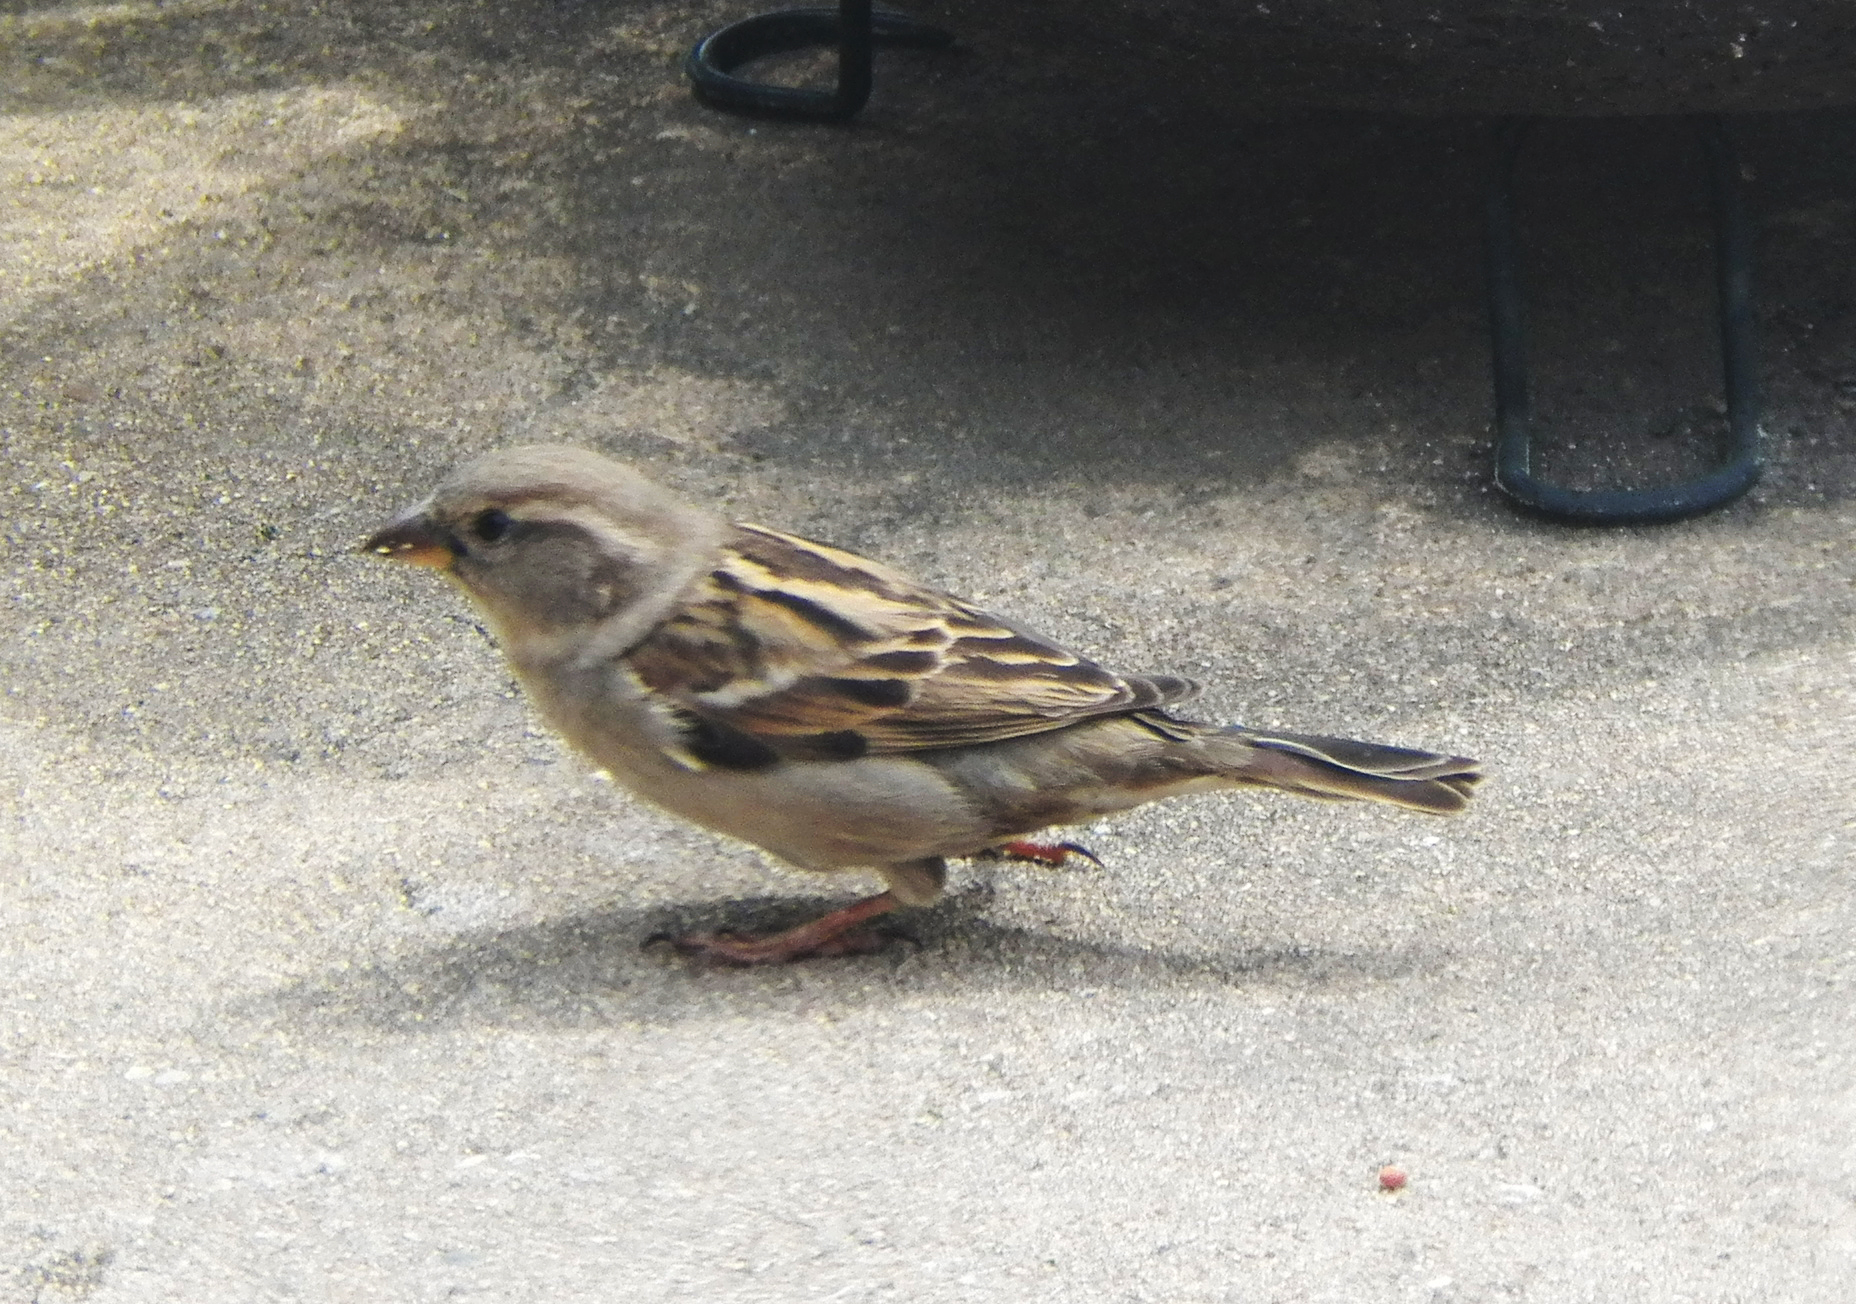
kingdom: Animalia
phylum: Chordata
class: Aves
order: Passeriformes
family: Passeridae
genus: Passer
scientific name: Passer domesticus
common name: House sparrow
